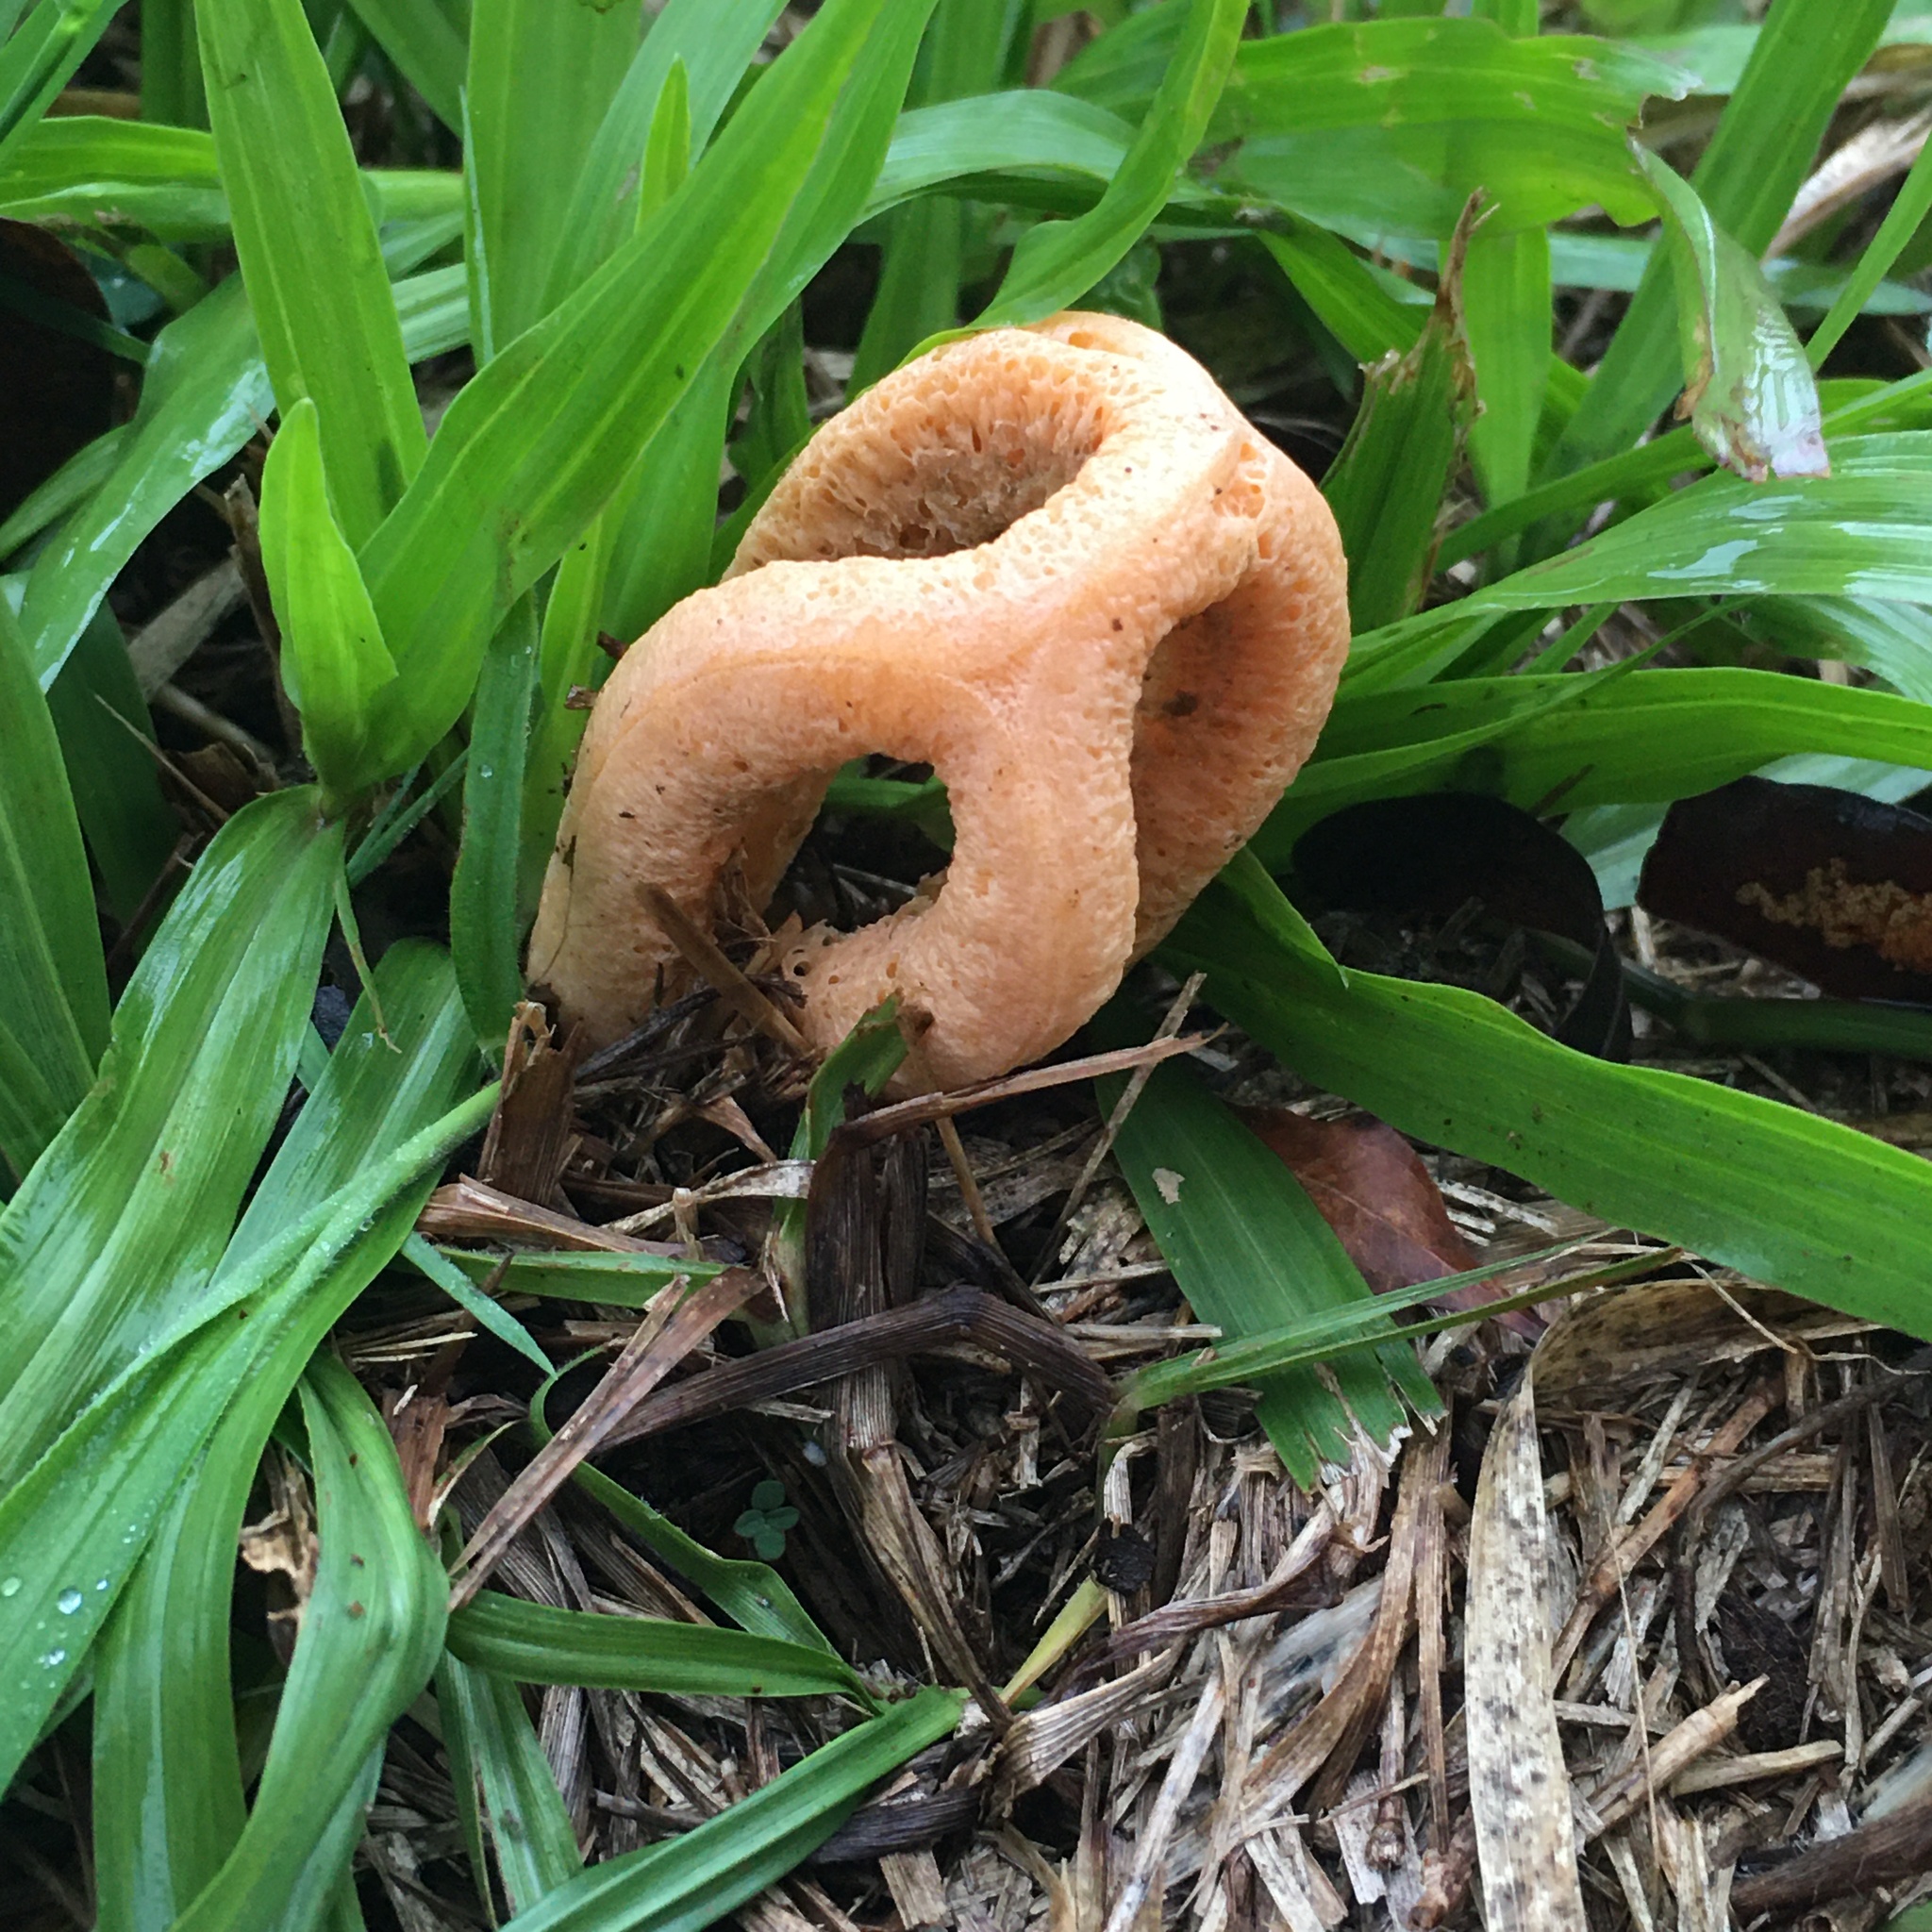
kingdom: Fungi
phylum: Basidiomycota
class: Agaricomycetes
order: Phallales
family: Phallaceae
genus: Clathrus
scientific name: Clathrus columnatus
